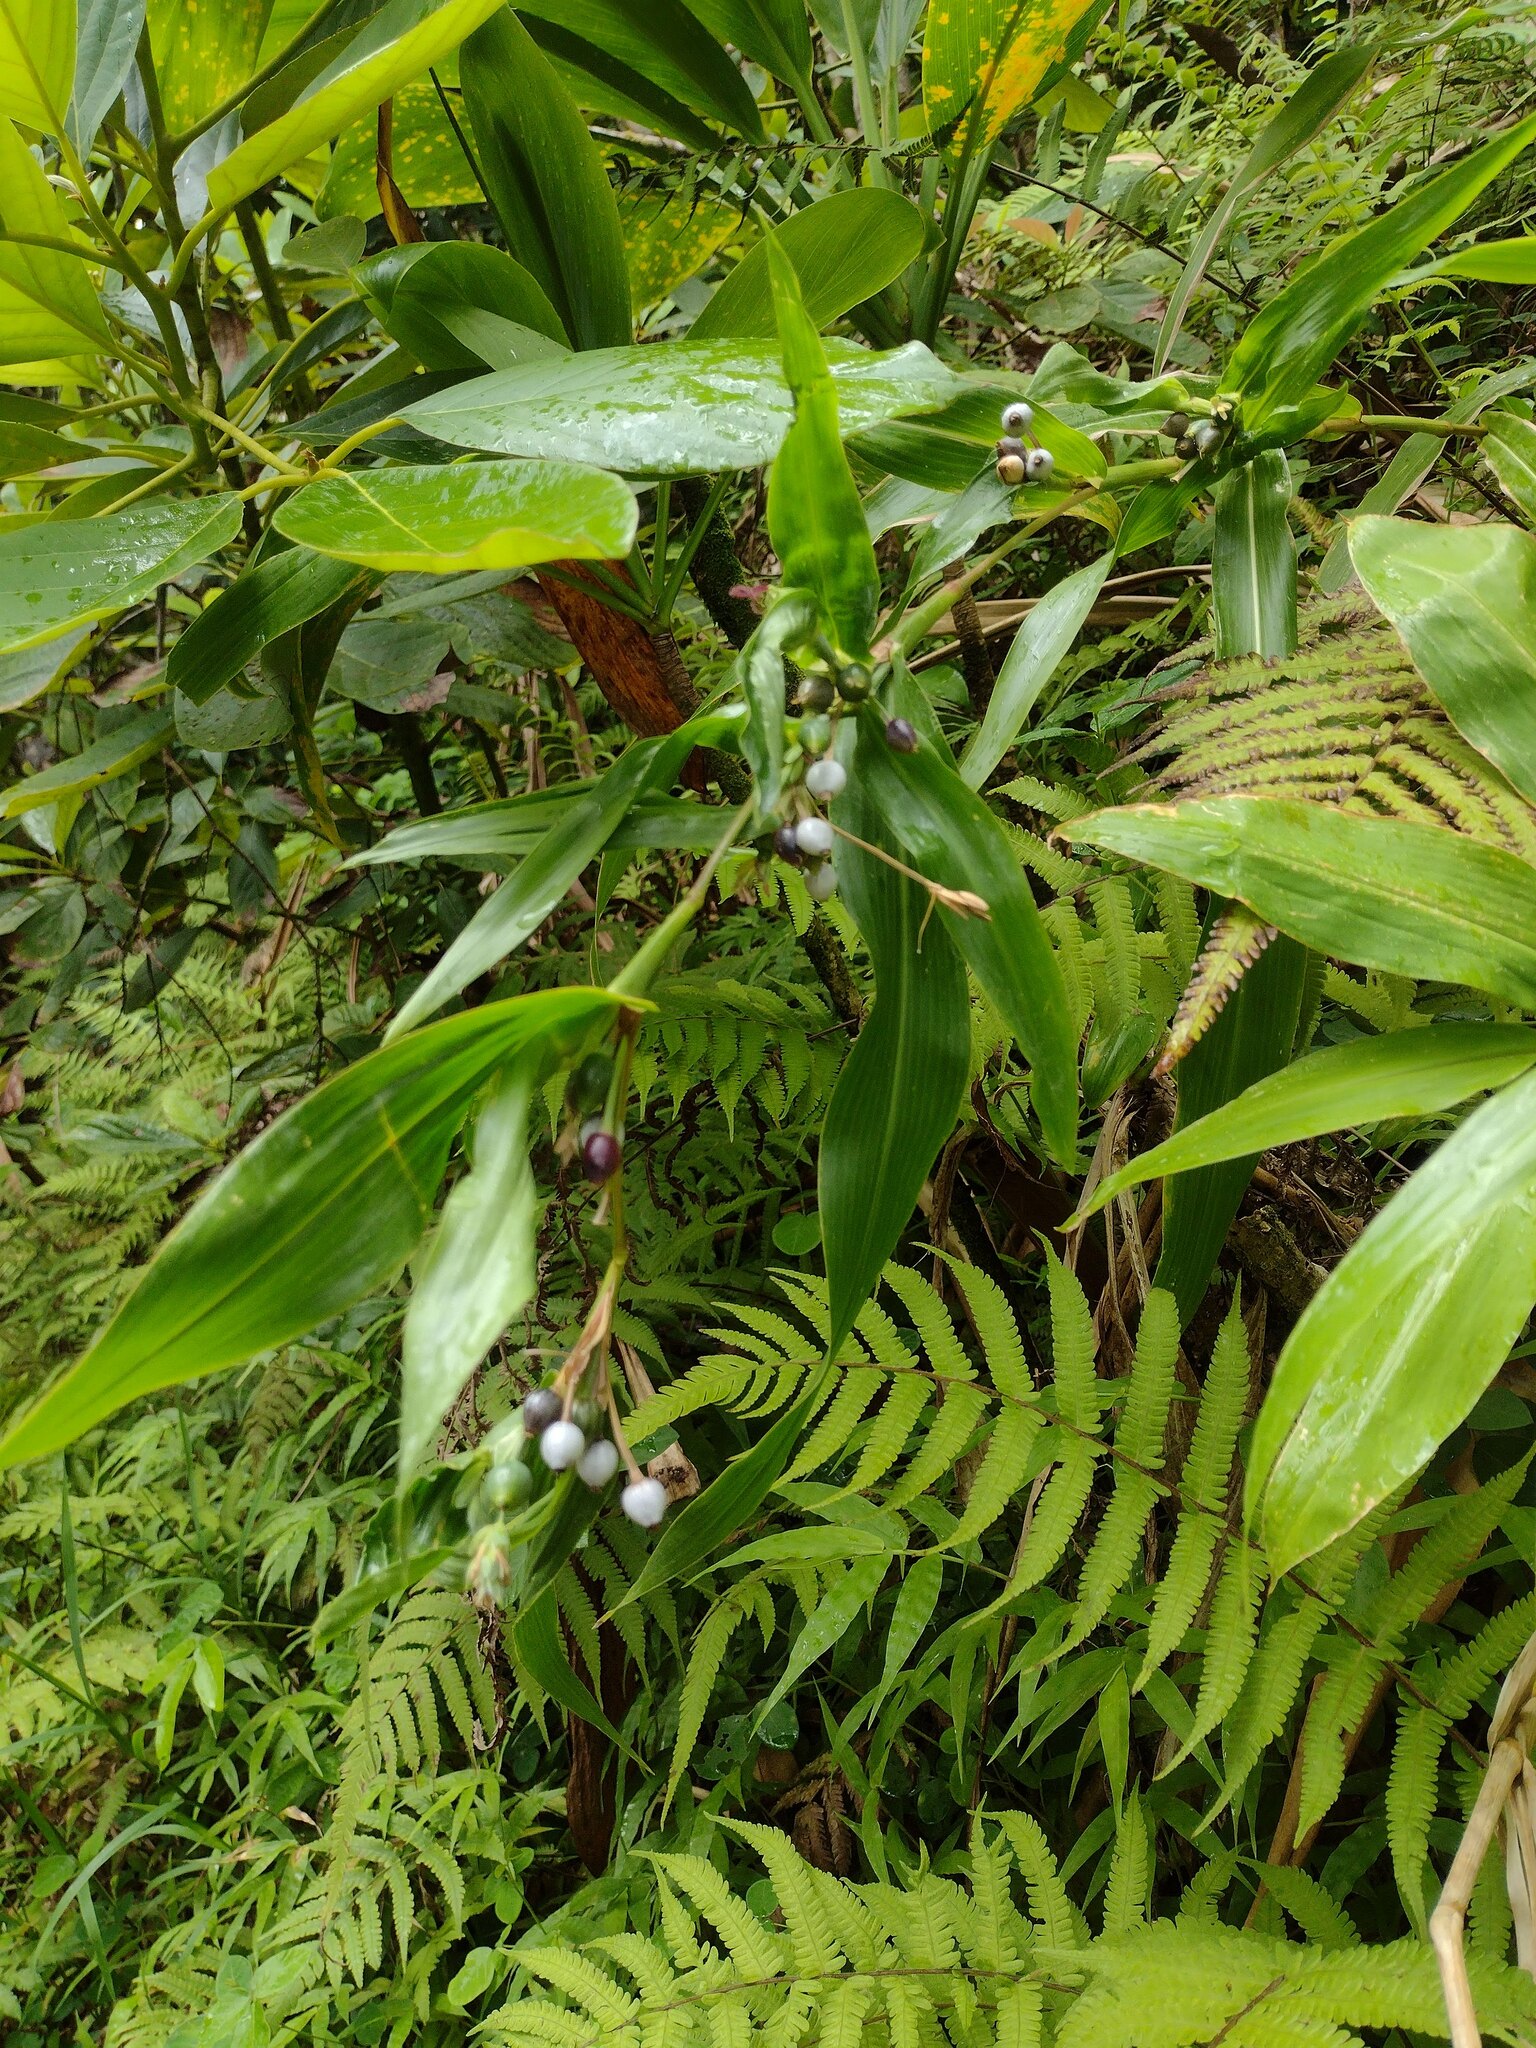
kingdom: Plantae
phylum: Tracheophyta
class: Liliopsida
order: Poales
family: Poaceae
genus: Coix
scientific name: Coix lacryma-jobi
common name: Job's tears
